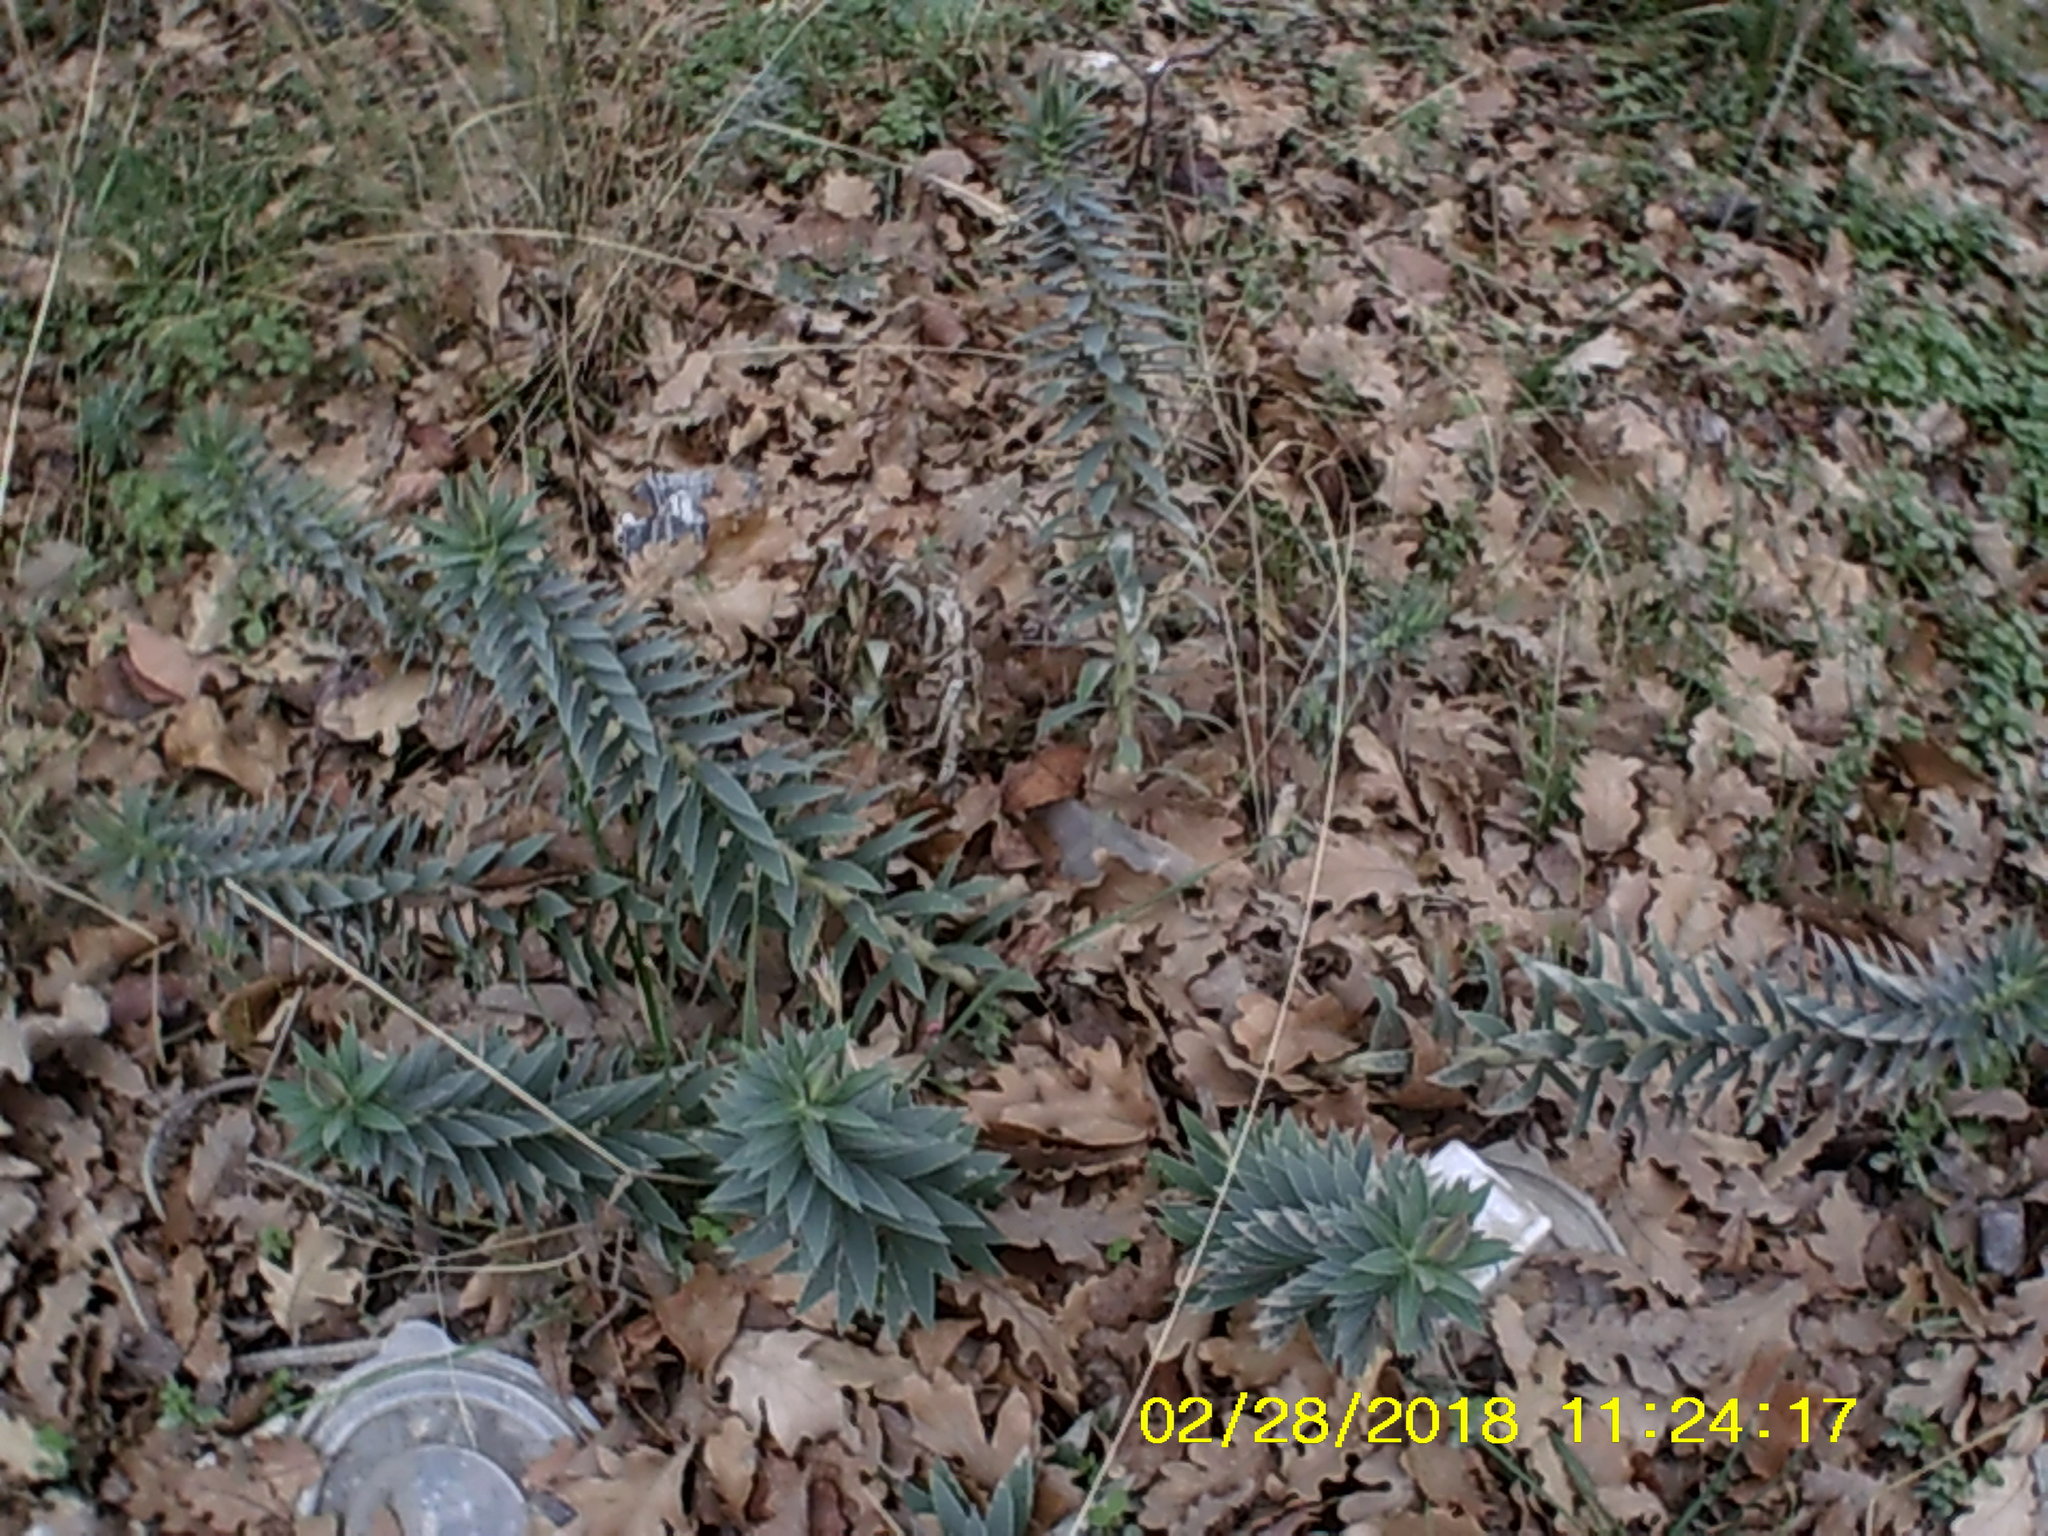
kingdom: Plantae
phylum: Tracheophyta
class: Magnoliopsida
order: Malpighiales
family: Euphorbiaceae
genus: Euphorbia
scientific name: Euphorbia rigida
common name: Upright myrtle spurge
